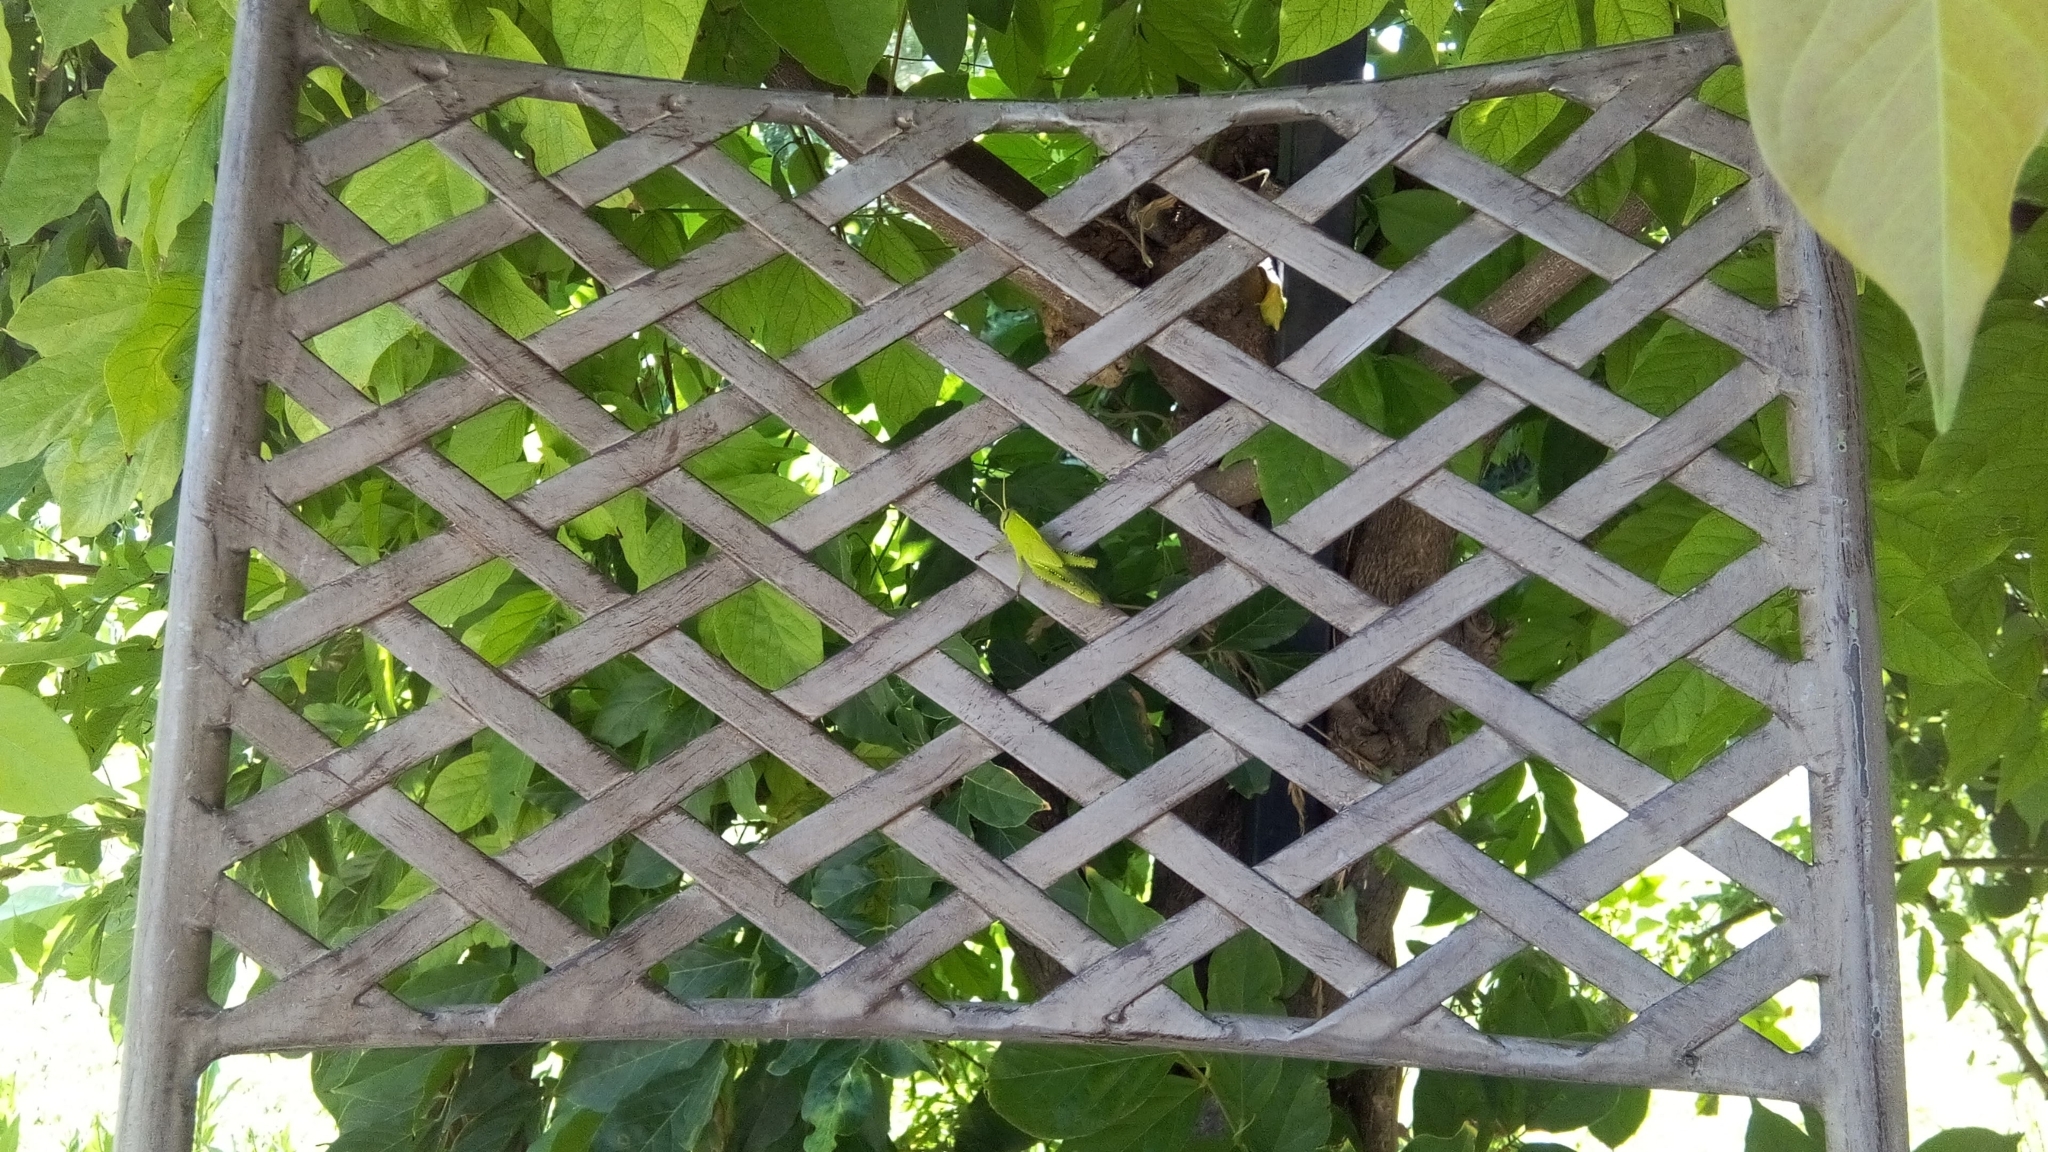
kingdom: Animalia
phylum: Arthropoda
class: Insecta
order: Orthoptera
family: Acrididae
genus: Anacridium
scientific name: Anacridium aegyptium
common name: Egyptian grasshopper
